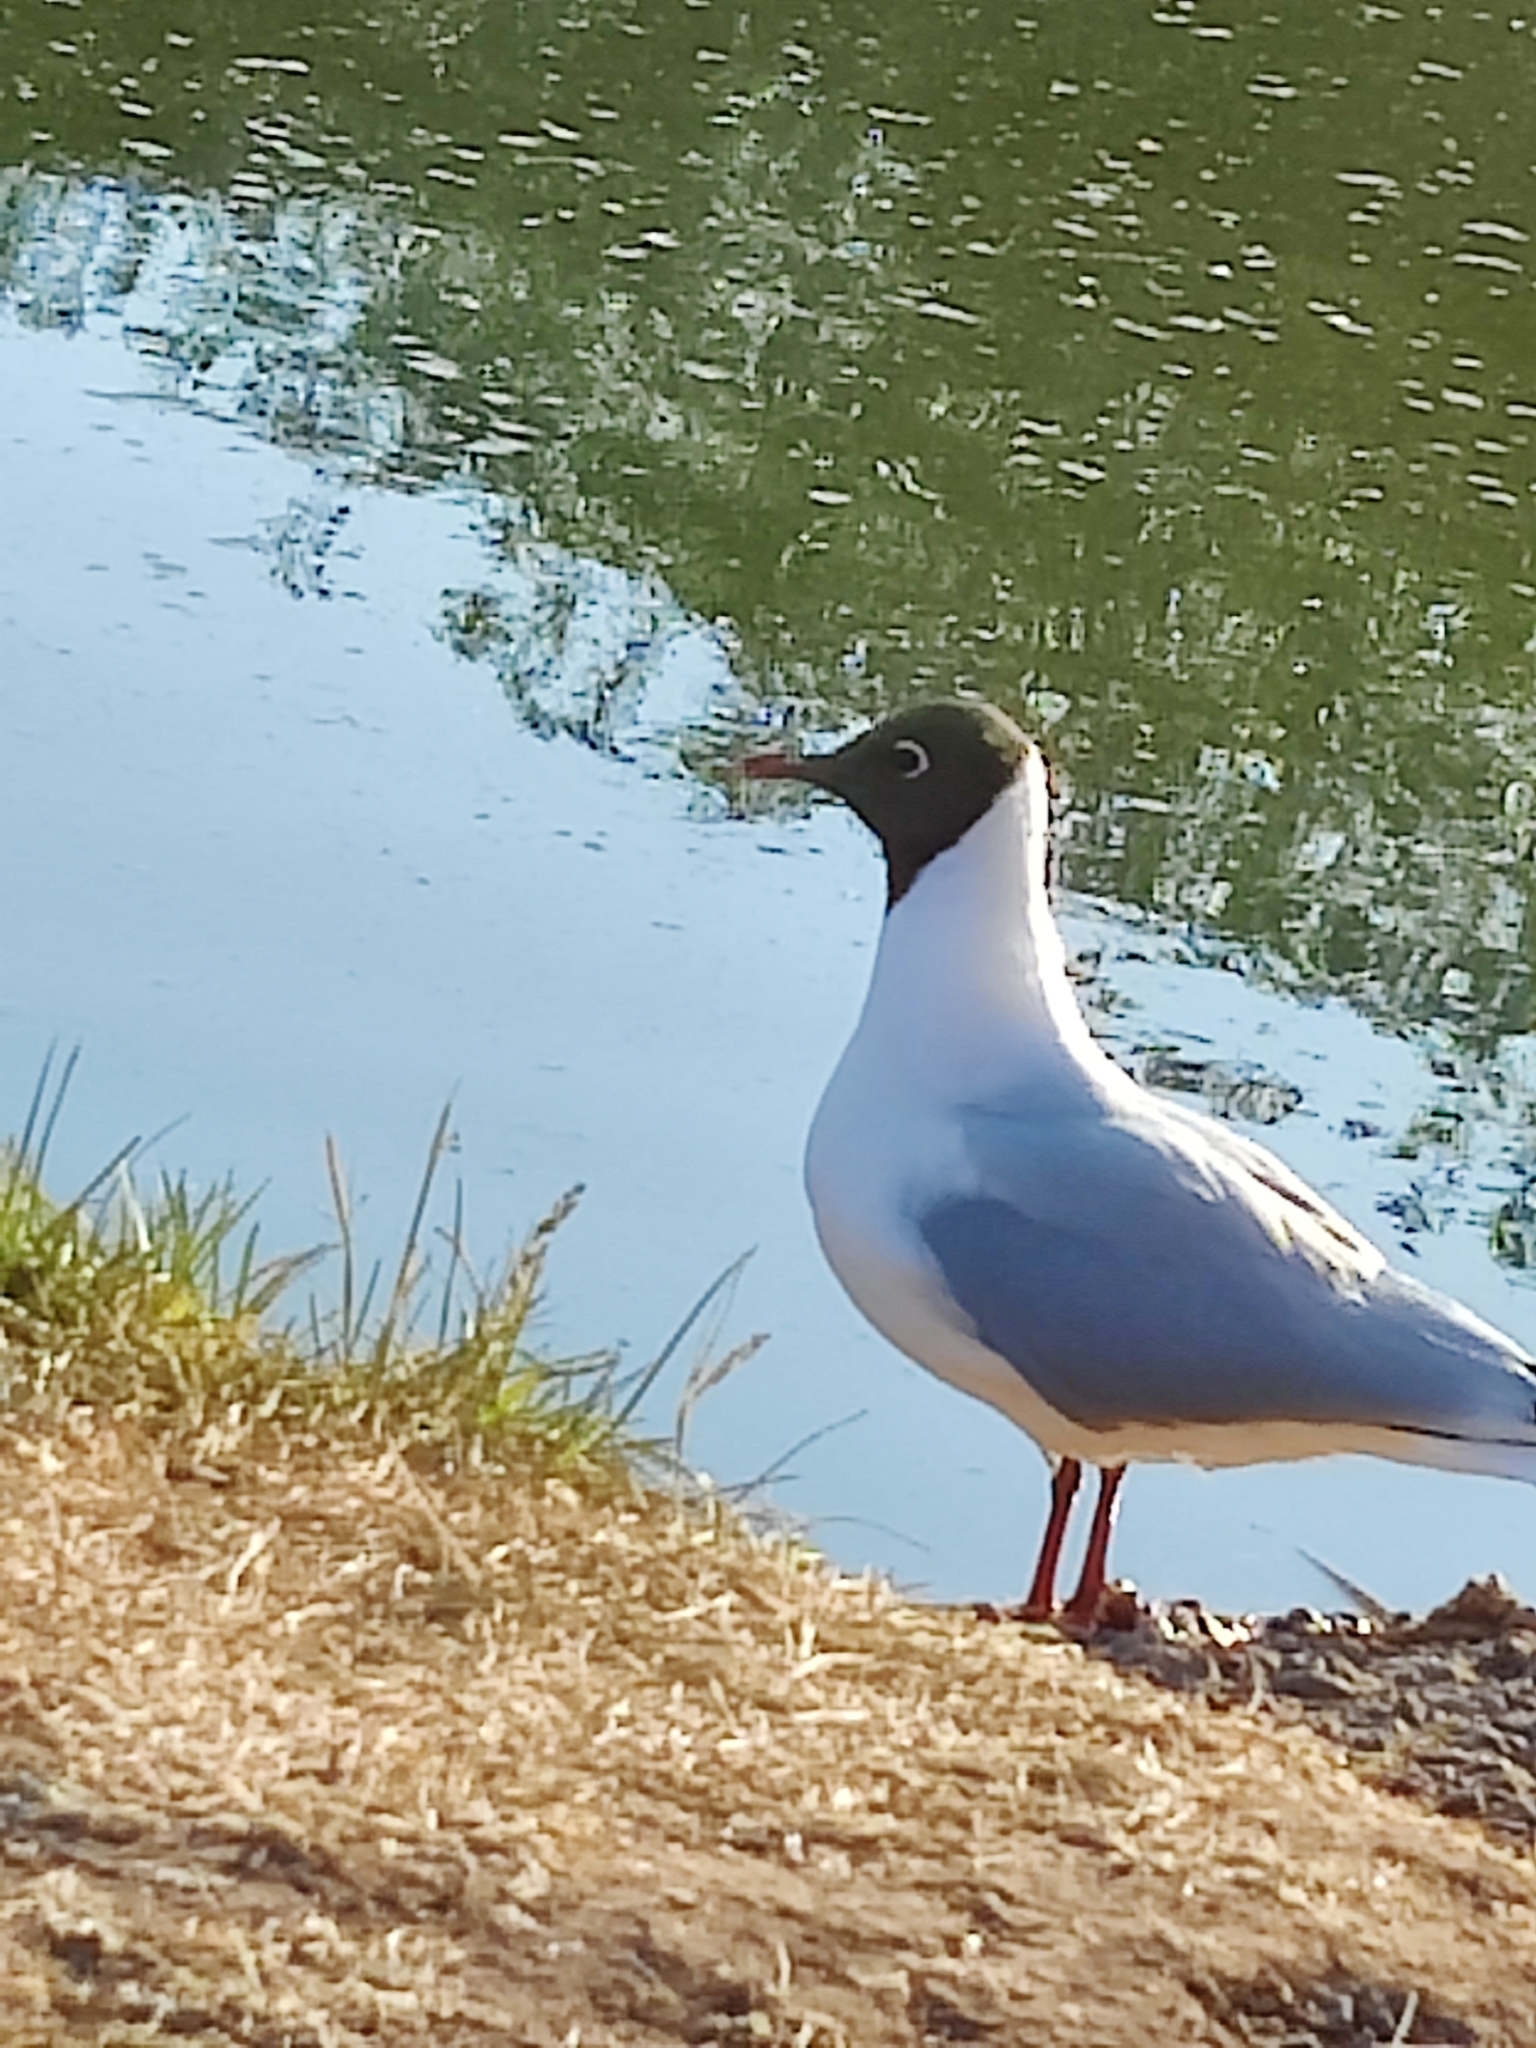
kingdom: Animalia
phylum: Chordata
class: Aves
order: Charadriiformes
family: Laridae
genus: Chroicocephalus
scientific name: Chroicocephalus ridibundus
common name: Black-headed gull
